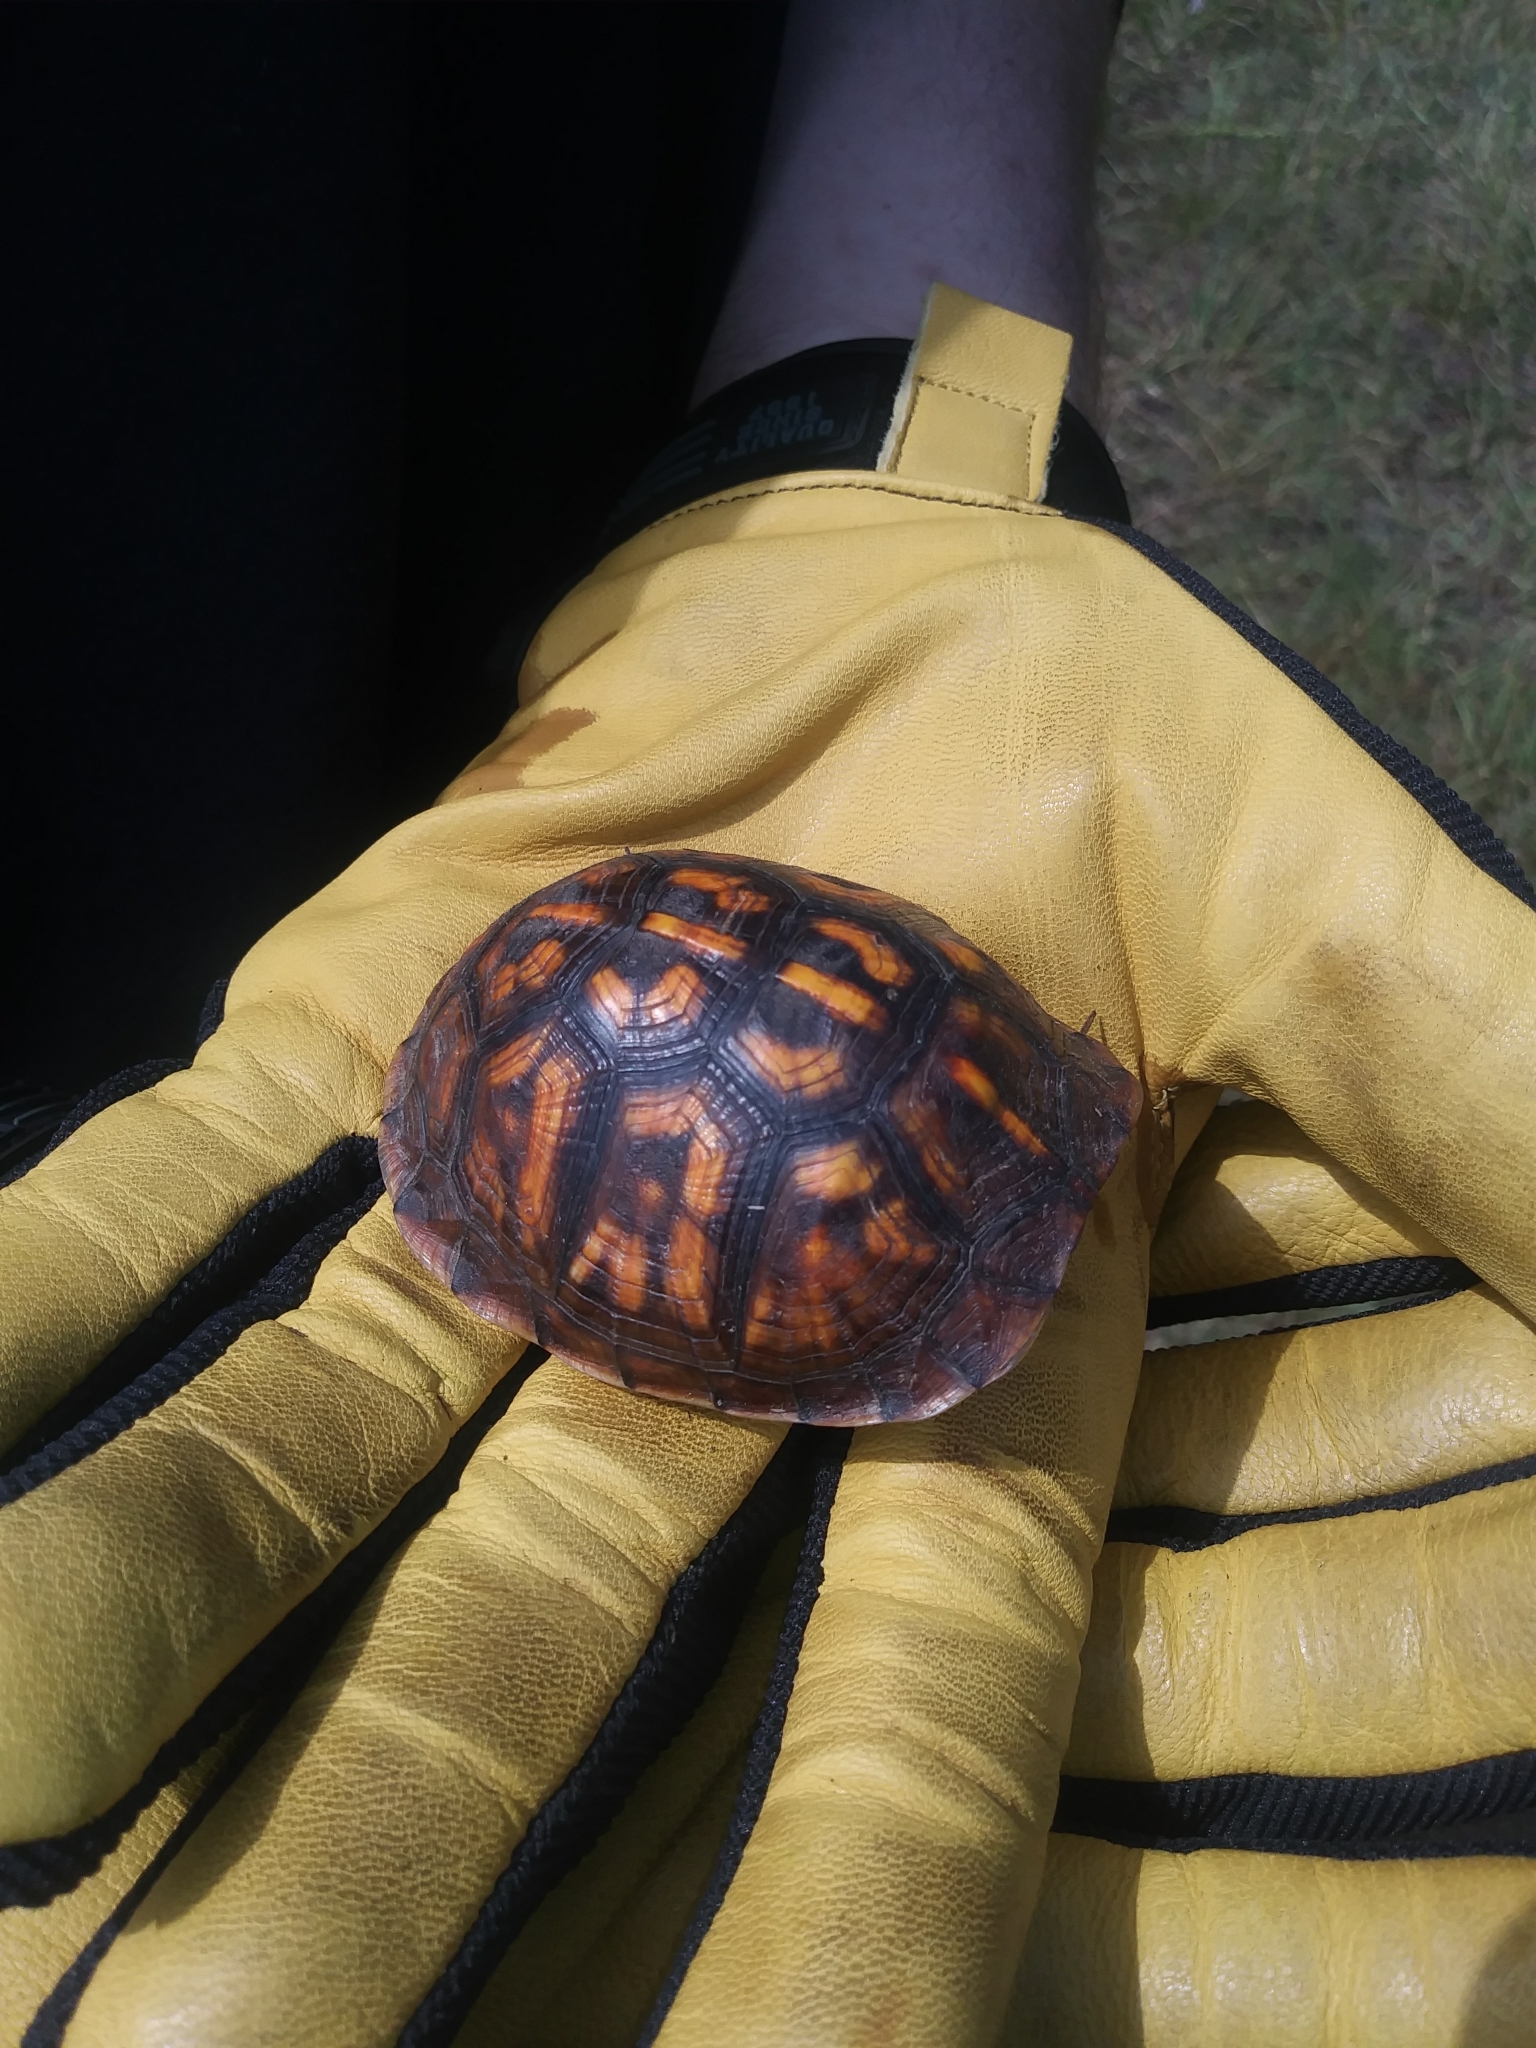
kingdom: Animalia
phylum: Chordata
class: Testudines
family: Emydidae
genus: Terrapene
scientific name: Terrapene carolina
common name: Common box turtle
